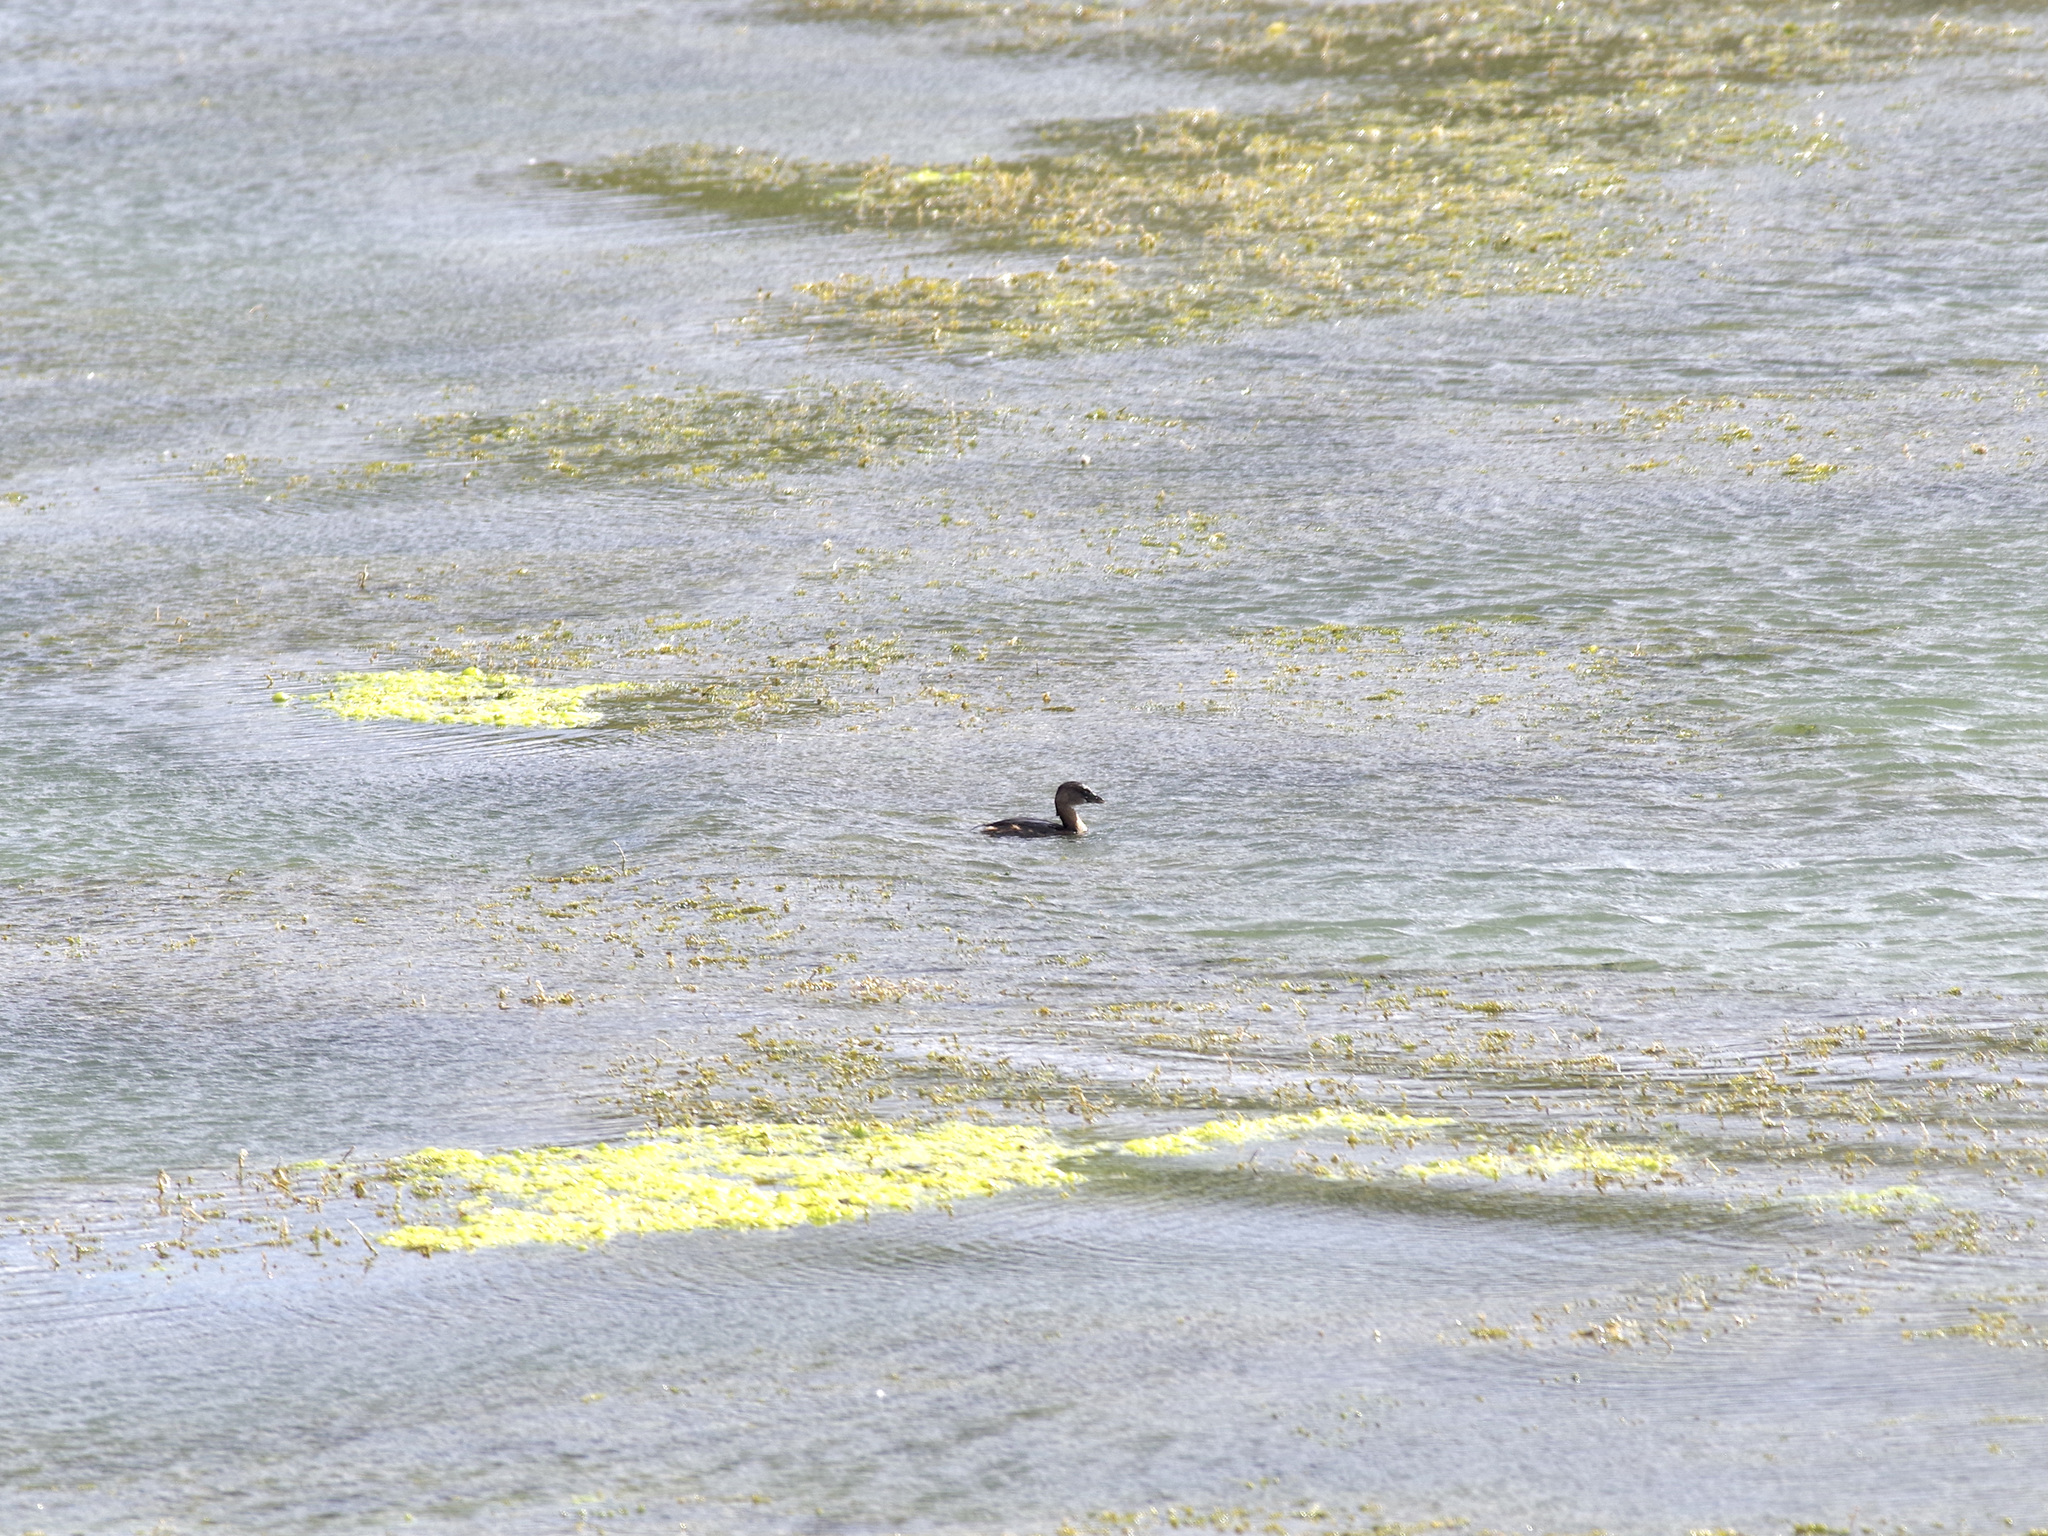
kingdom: Animalia
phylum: Chordata
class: Aves
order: Podicipediformes
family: Podicipedidae
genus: Podilymbus
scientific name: Podilymbus podiceps
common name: Pied-billed grebe
